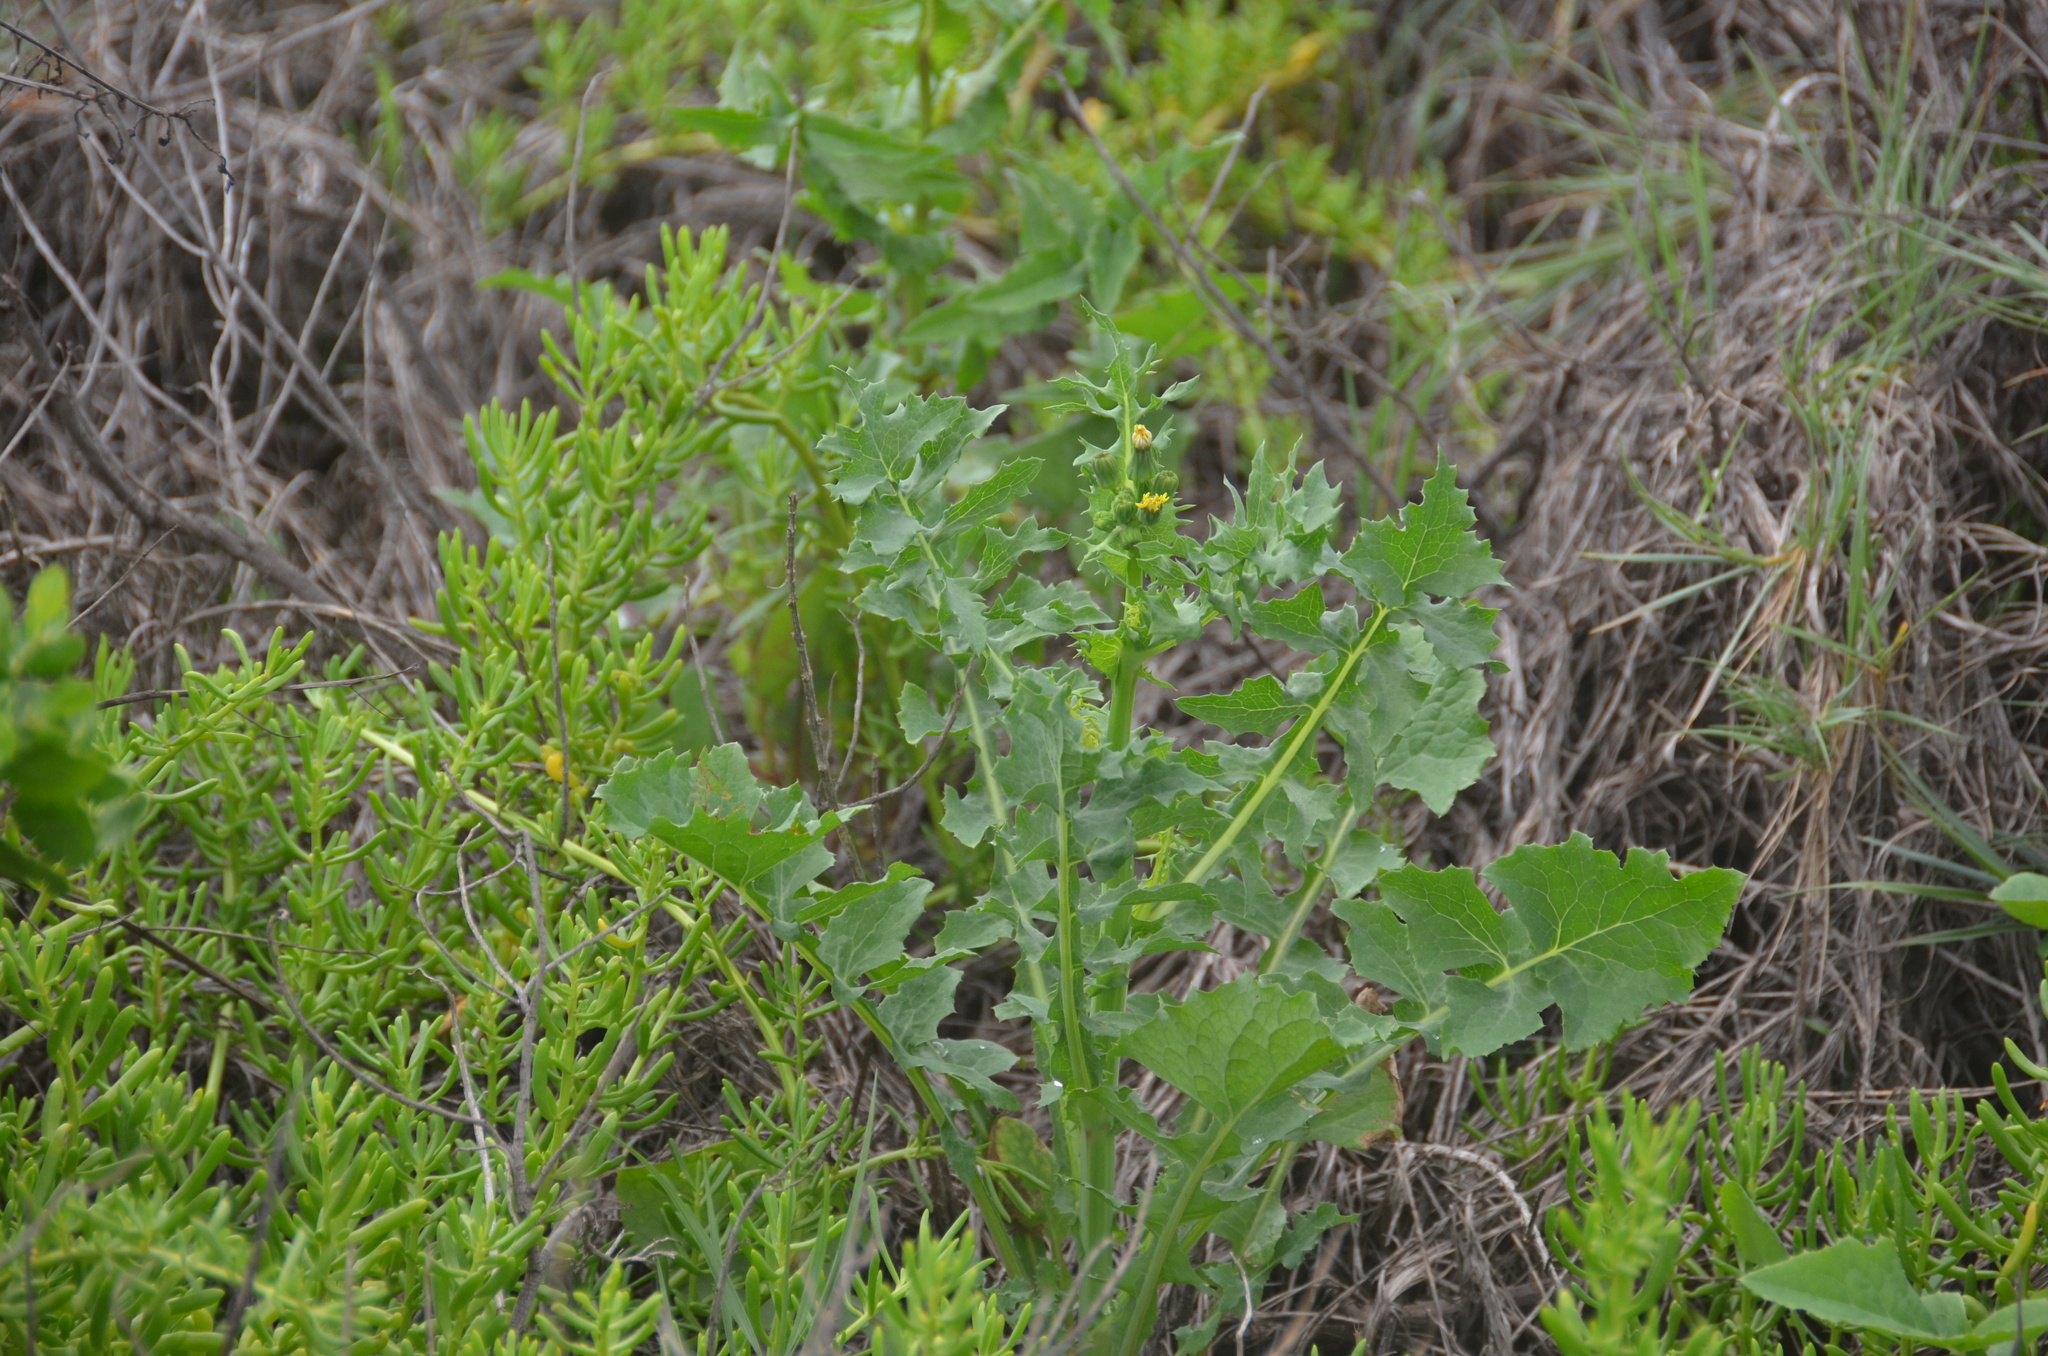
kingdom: Plantae
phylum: Tracheophyta
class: Magnoliopsida
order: Asterales
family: Asteraceae
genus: Sonchus
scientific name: Sonchus oleraceus
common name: Common sowthistle
